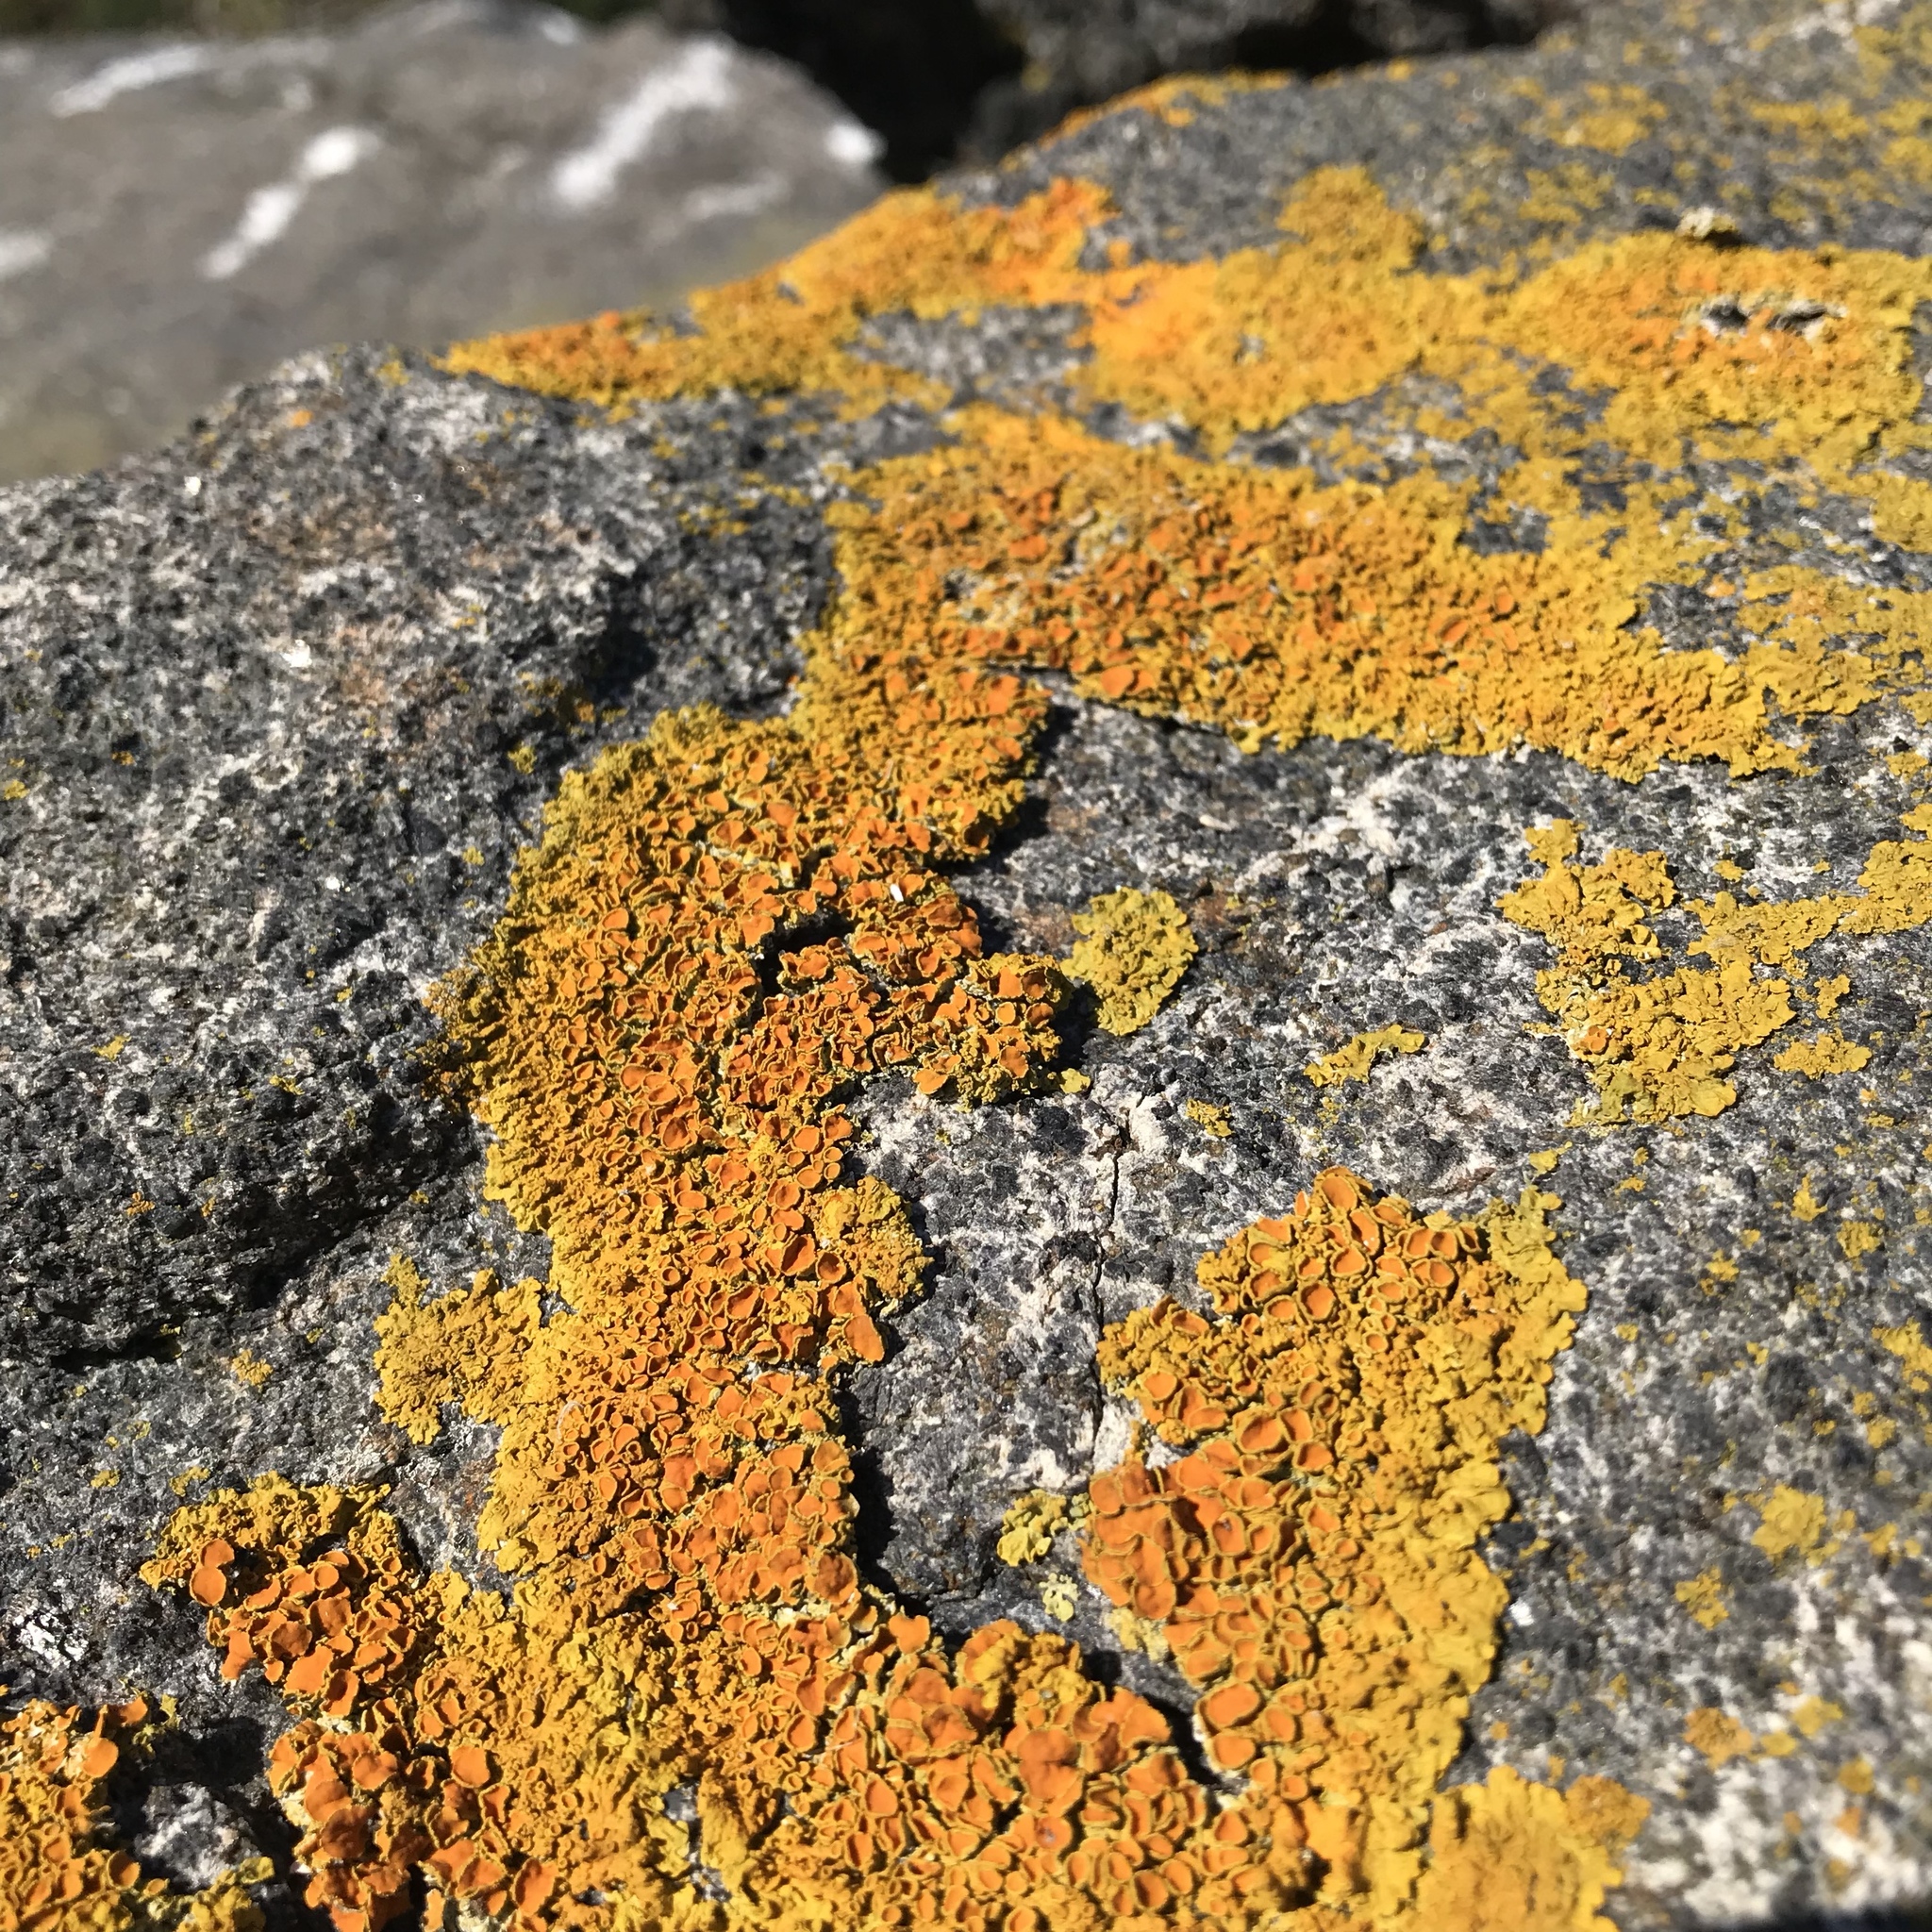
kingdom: Fungi
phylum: Ascomycota
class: Lecanoromycetes
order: Teloschistales
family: Teloschistaceae
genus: Xanthoria
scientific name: Xanthoria parietina
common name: Common orange lichen
